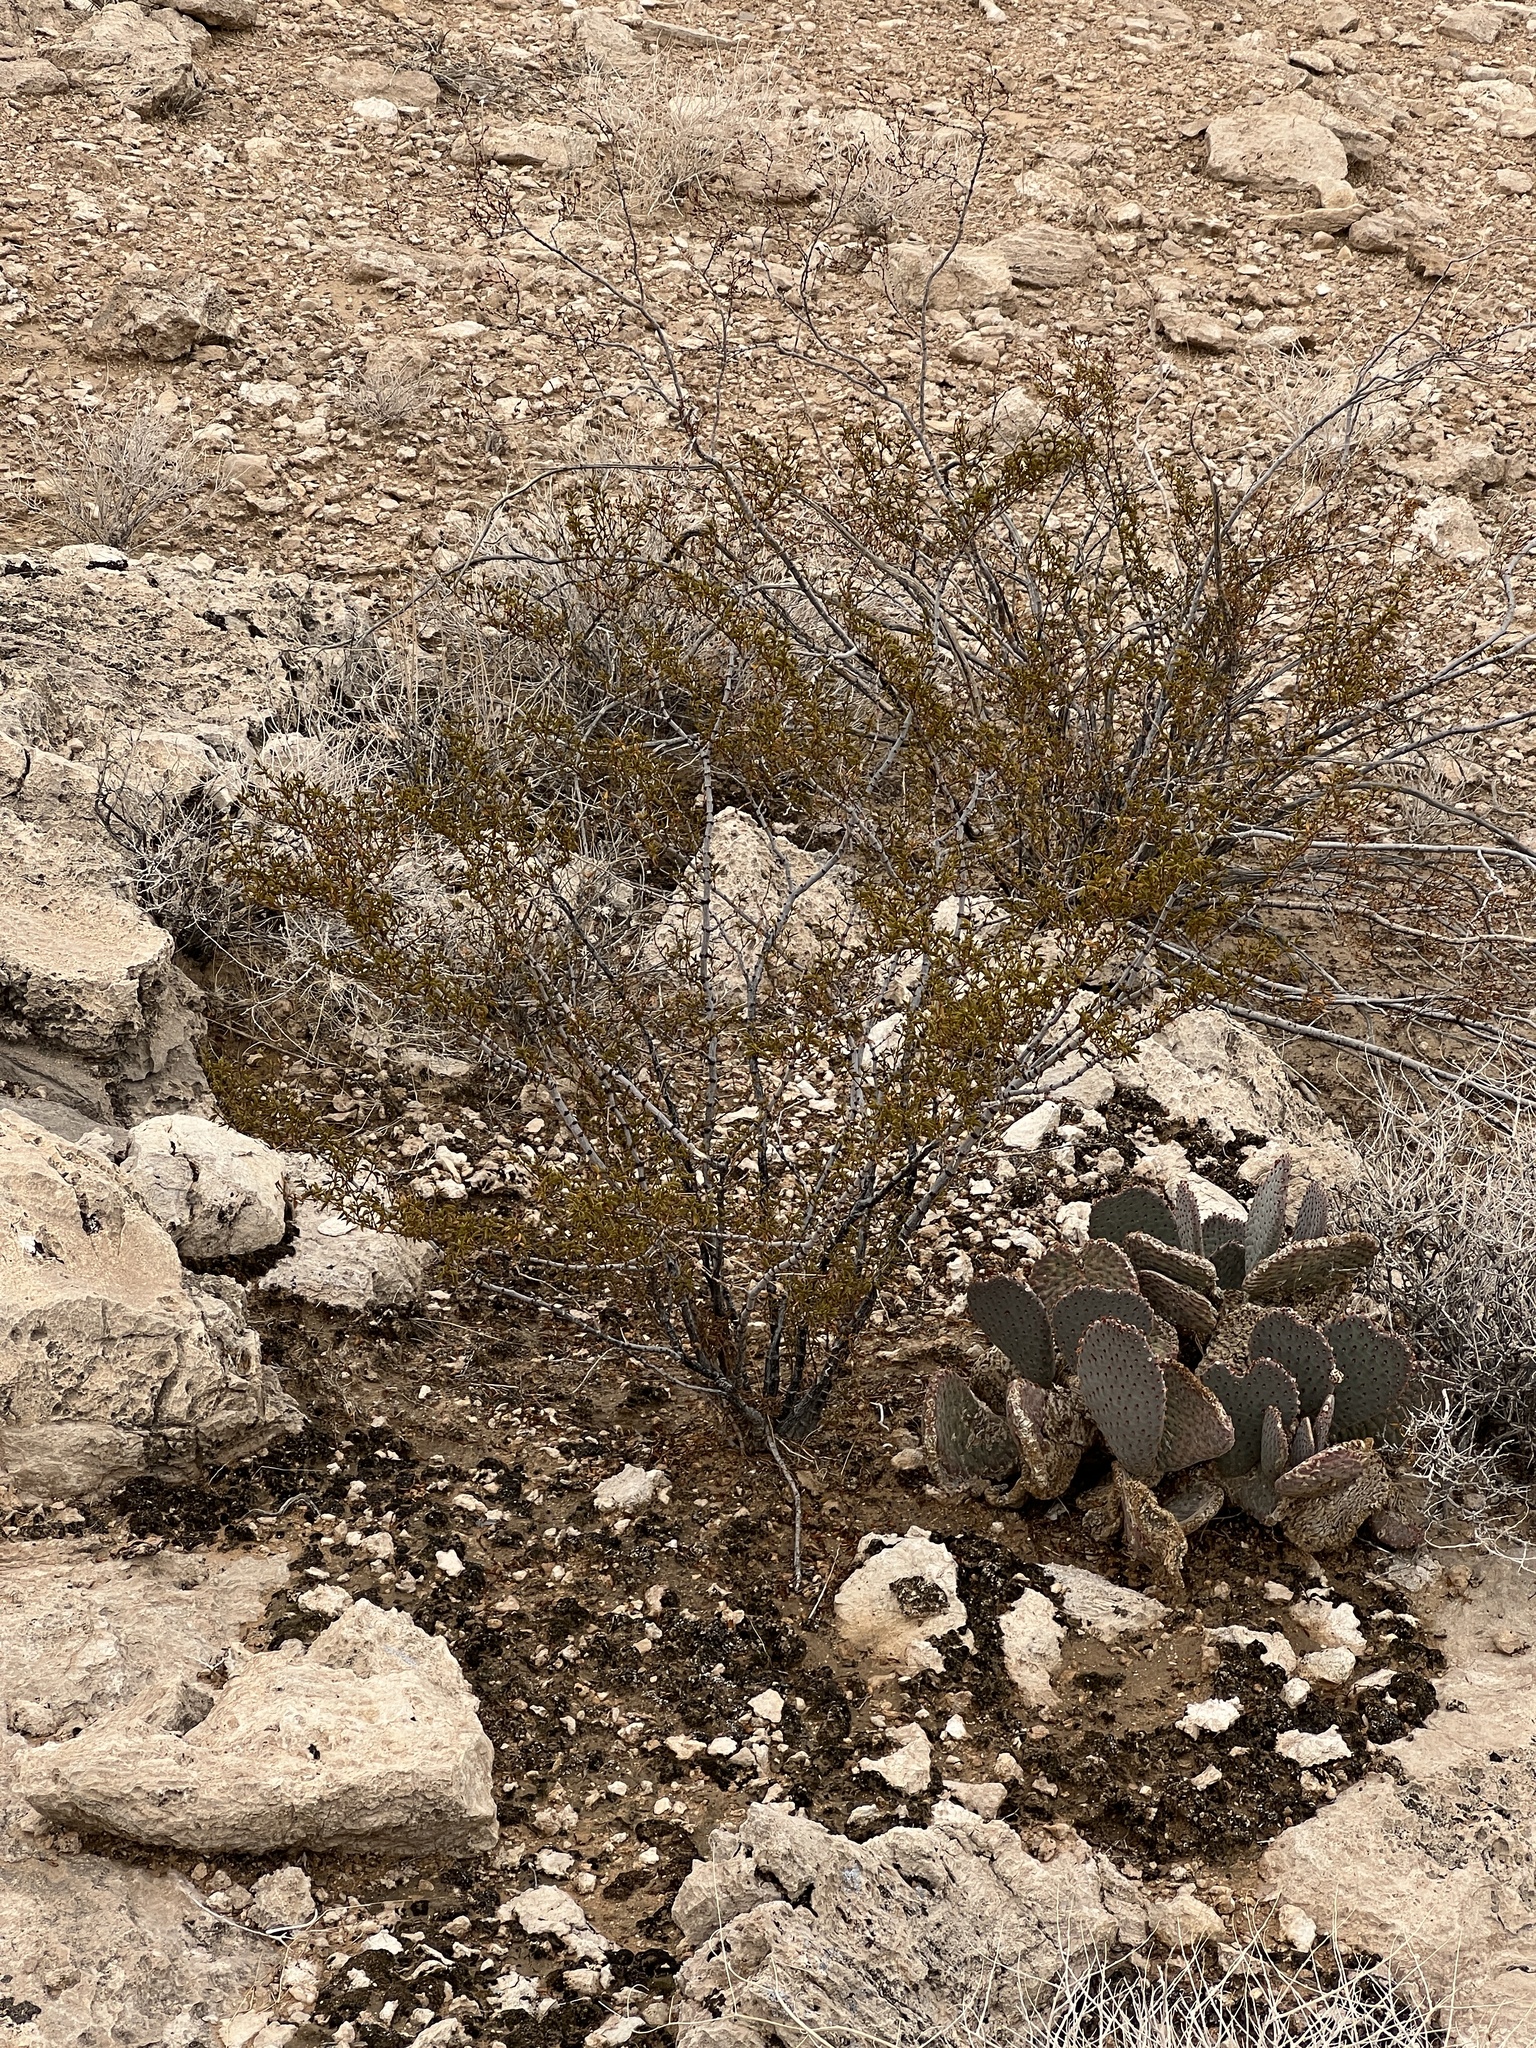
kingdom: Plantae
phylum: Tracheophyta
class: Magnoliopsida
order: Zygophyllales
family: Zygophyllaceae
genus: Larrea
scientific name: Larrea tridentata
